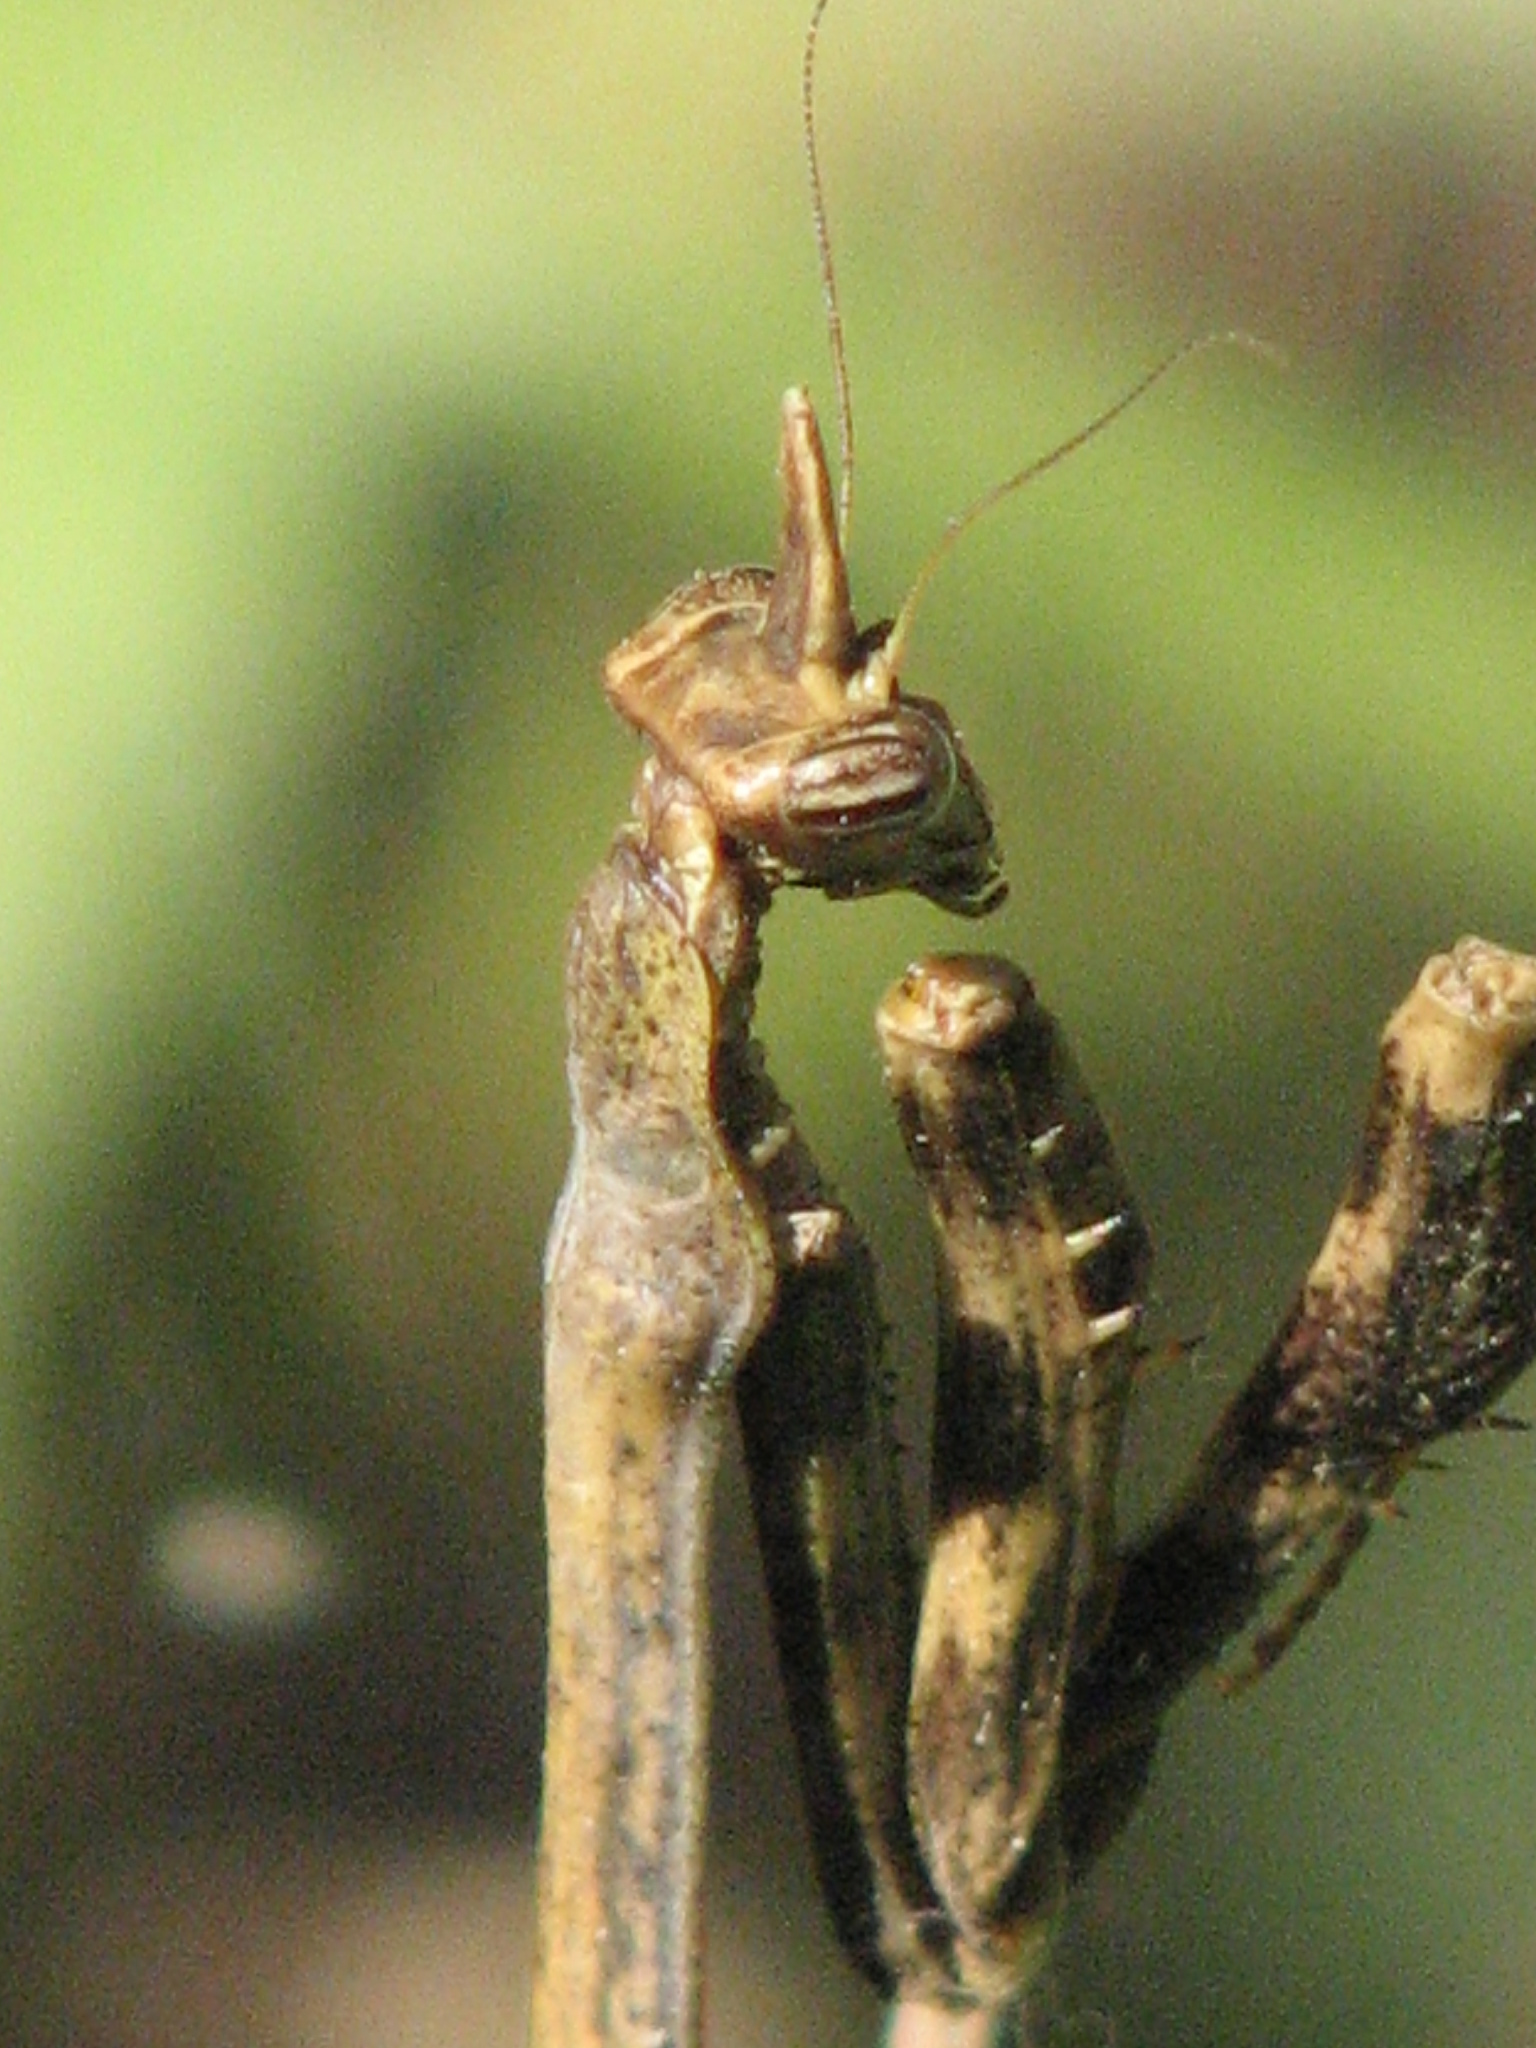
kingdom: Animalia
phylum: Arthropoda
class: Insecta
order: Mantodea
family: Mantidae
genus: Pseudovates
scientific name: Pseudovates chlorophaea
